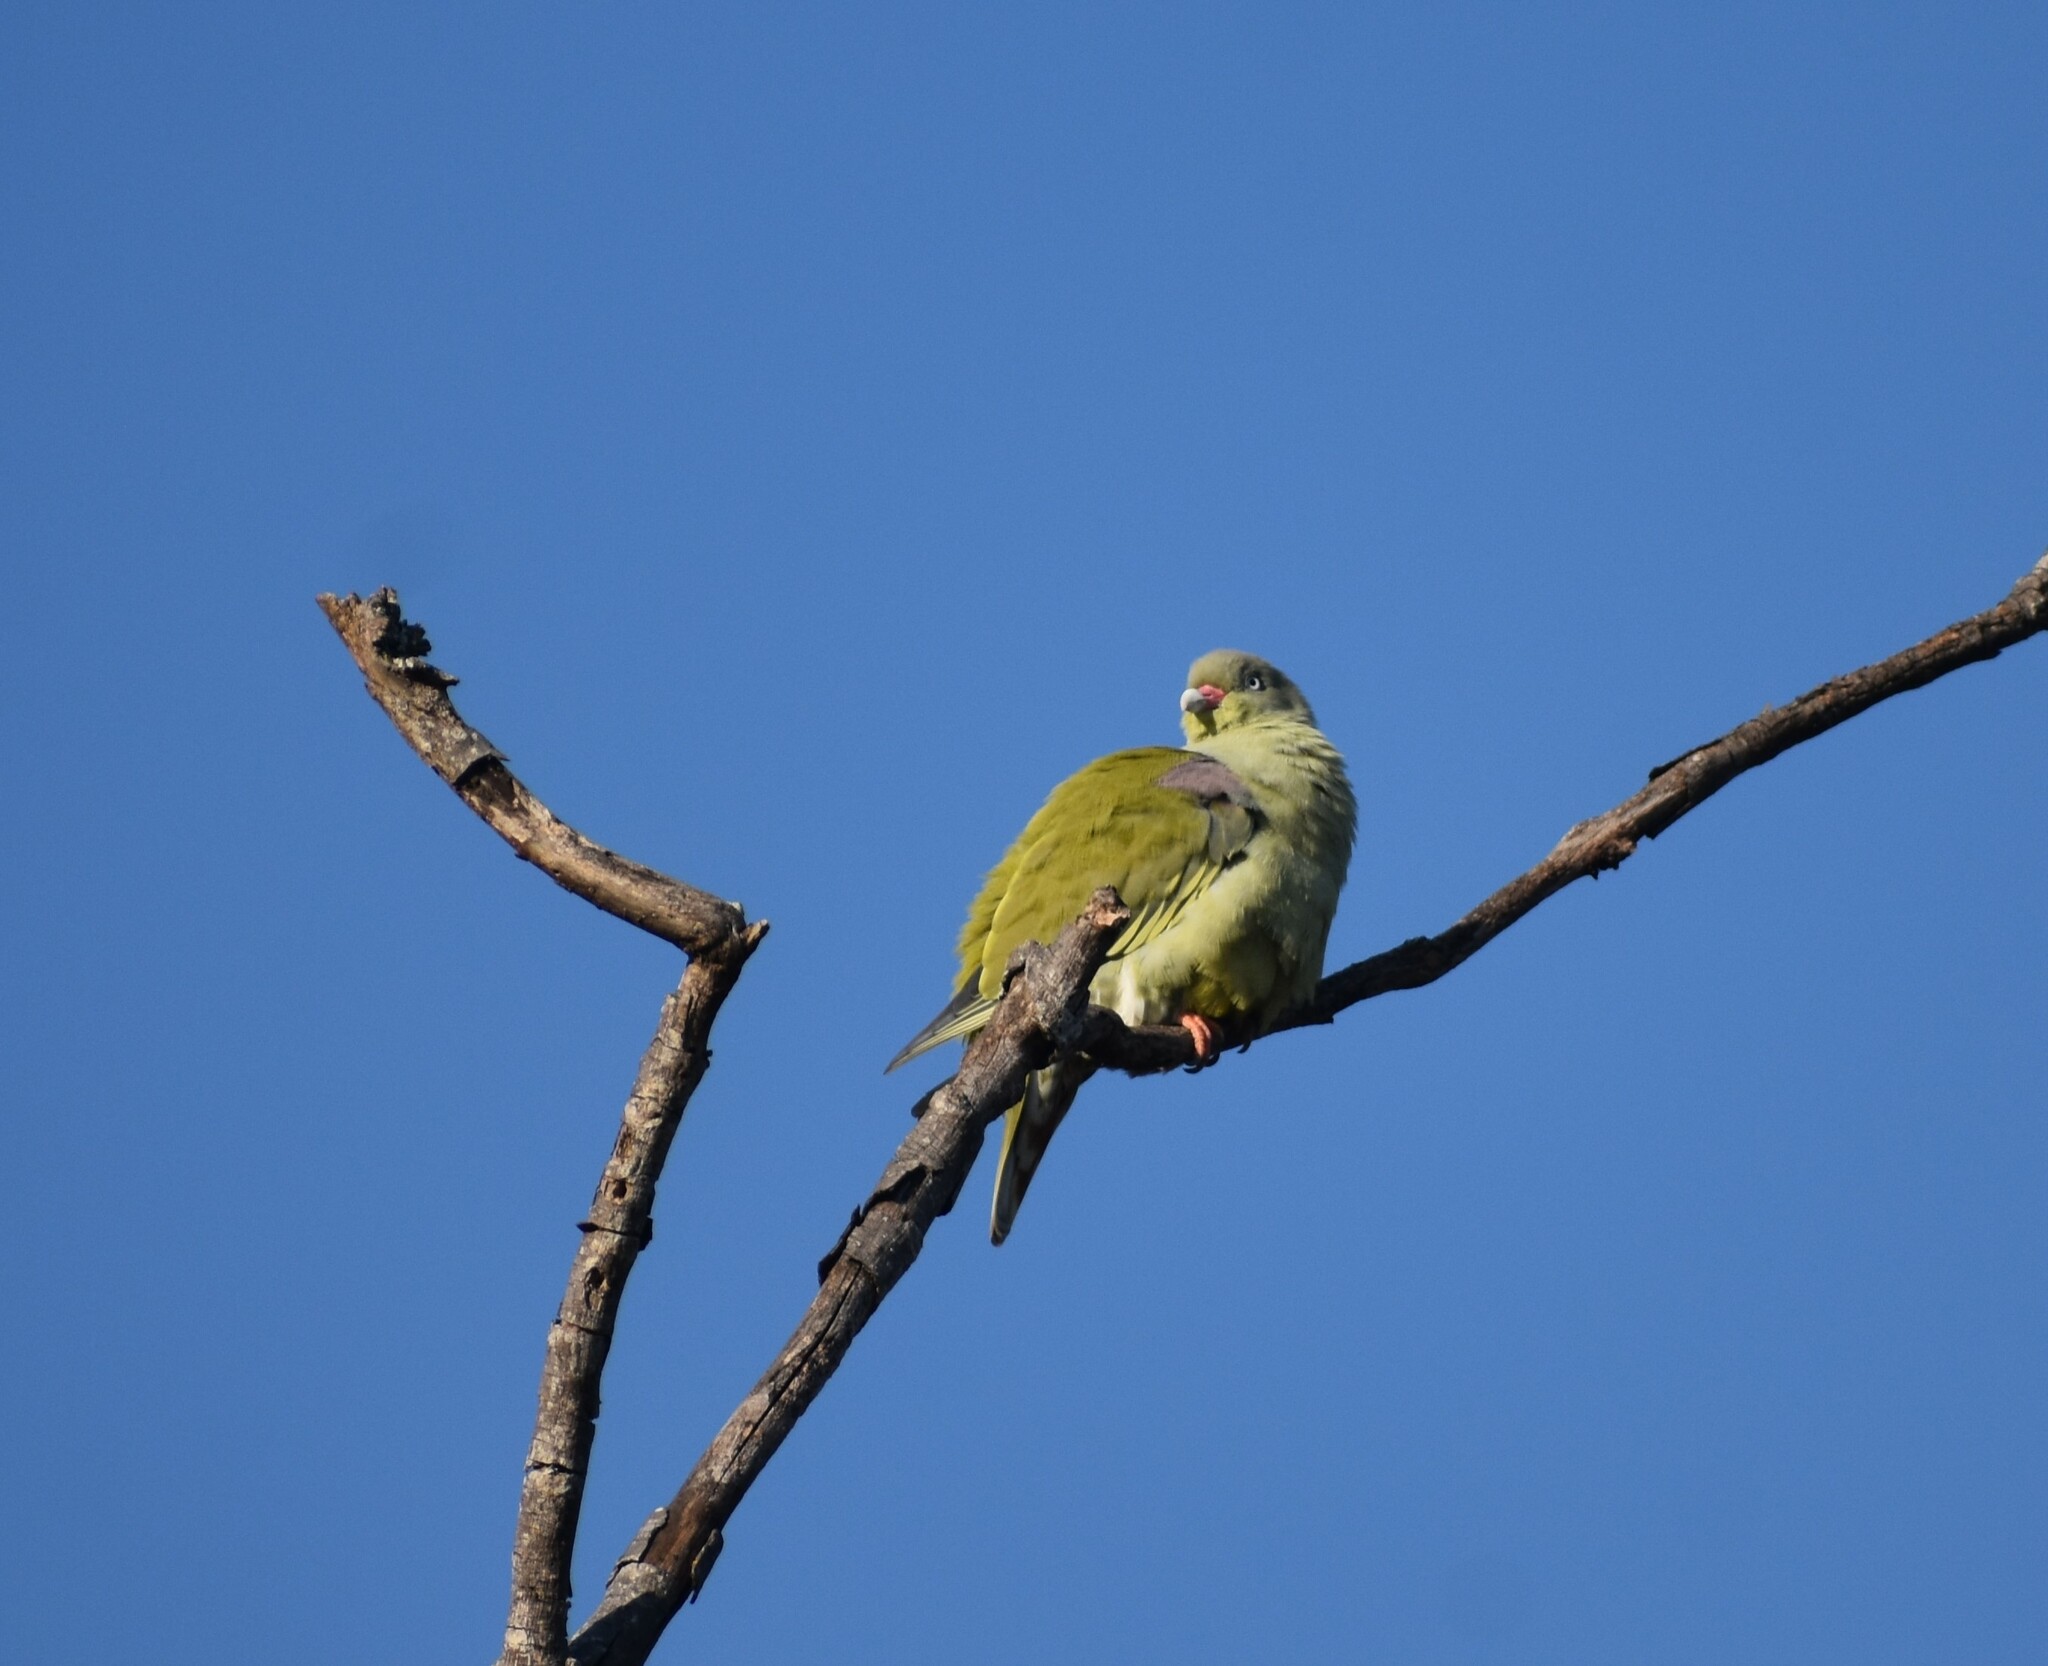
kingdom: Animalia
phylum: Chordata
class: Aves
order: Columbiformes
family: Columbidae
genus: Treron
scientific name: Treron calvus
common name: African green pigeon
